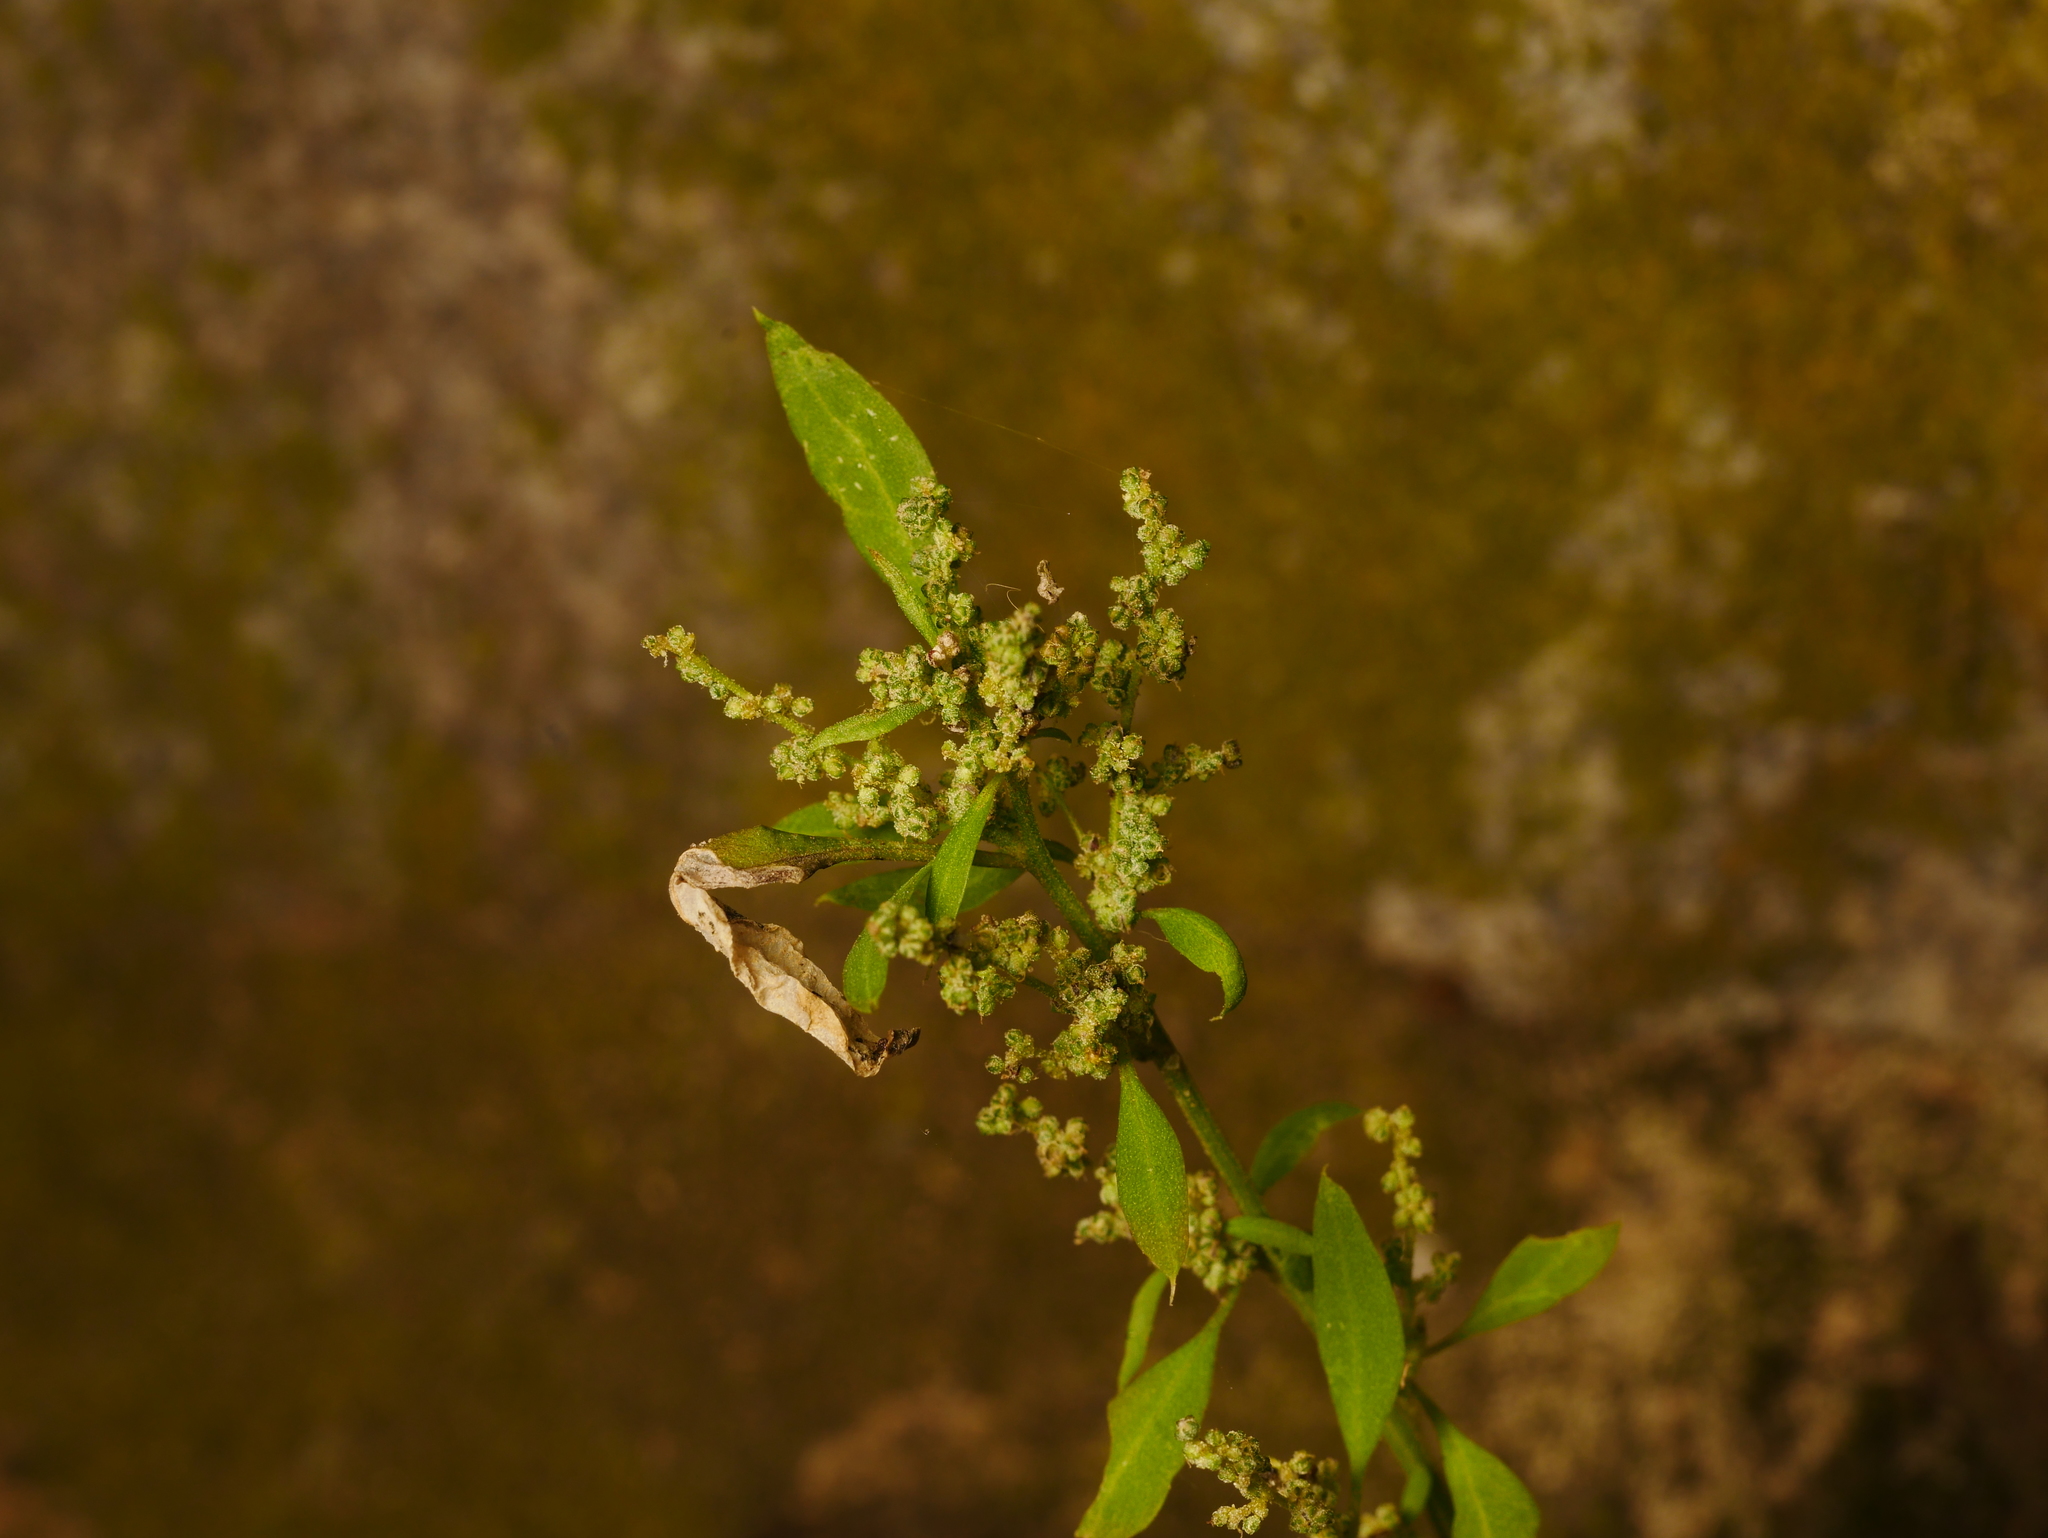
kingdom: Plantae
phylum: Tracheophyta
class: Magnoliopsida
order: Caryophyllales
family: Amaranthaceae
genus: Chenopodium
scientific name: Chenopodium album
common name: Fat-hen
